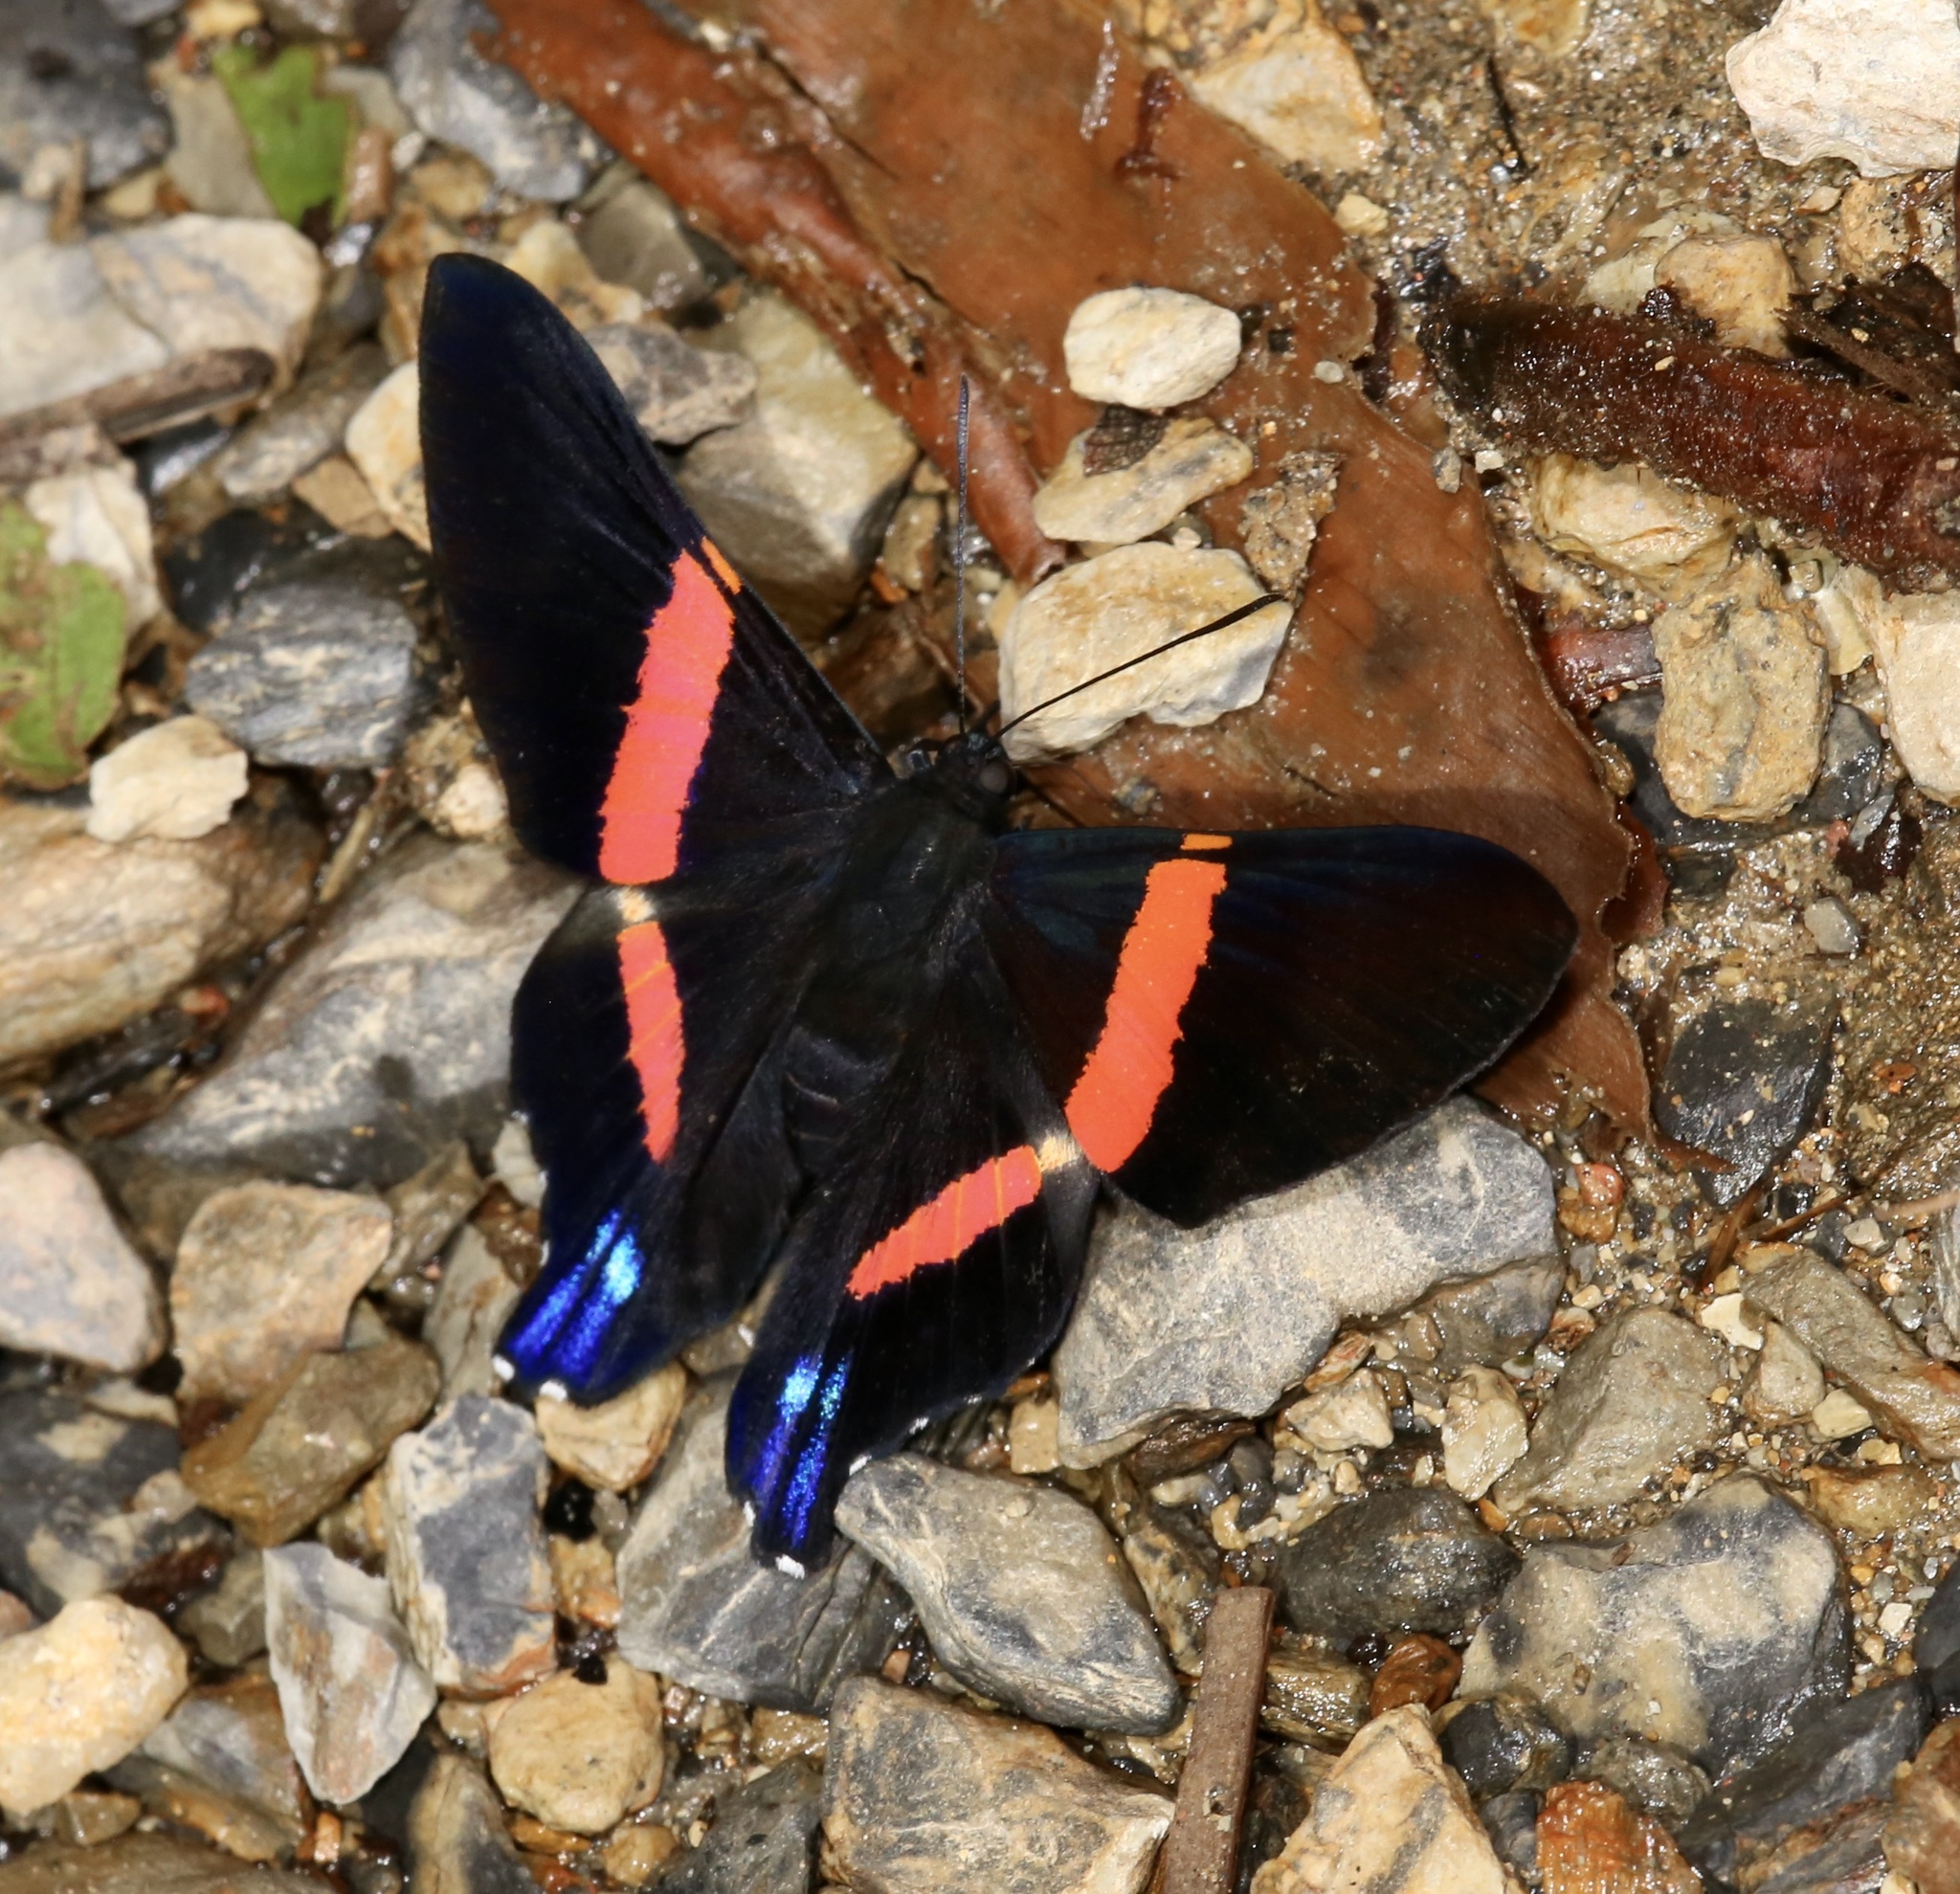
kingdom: Animalia
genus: Ancyluris
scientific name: Ancyluris inca
